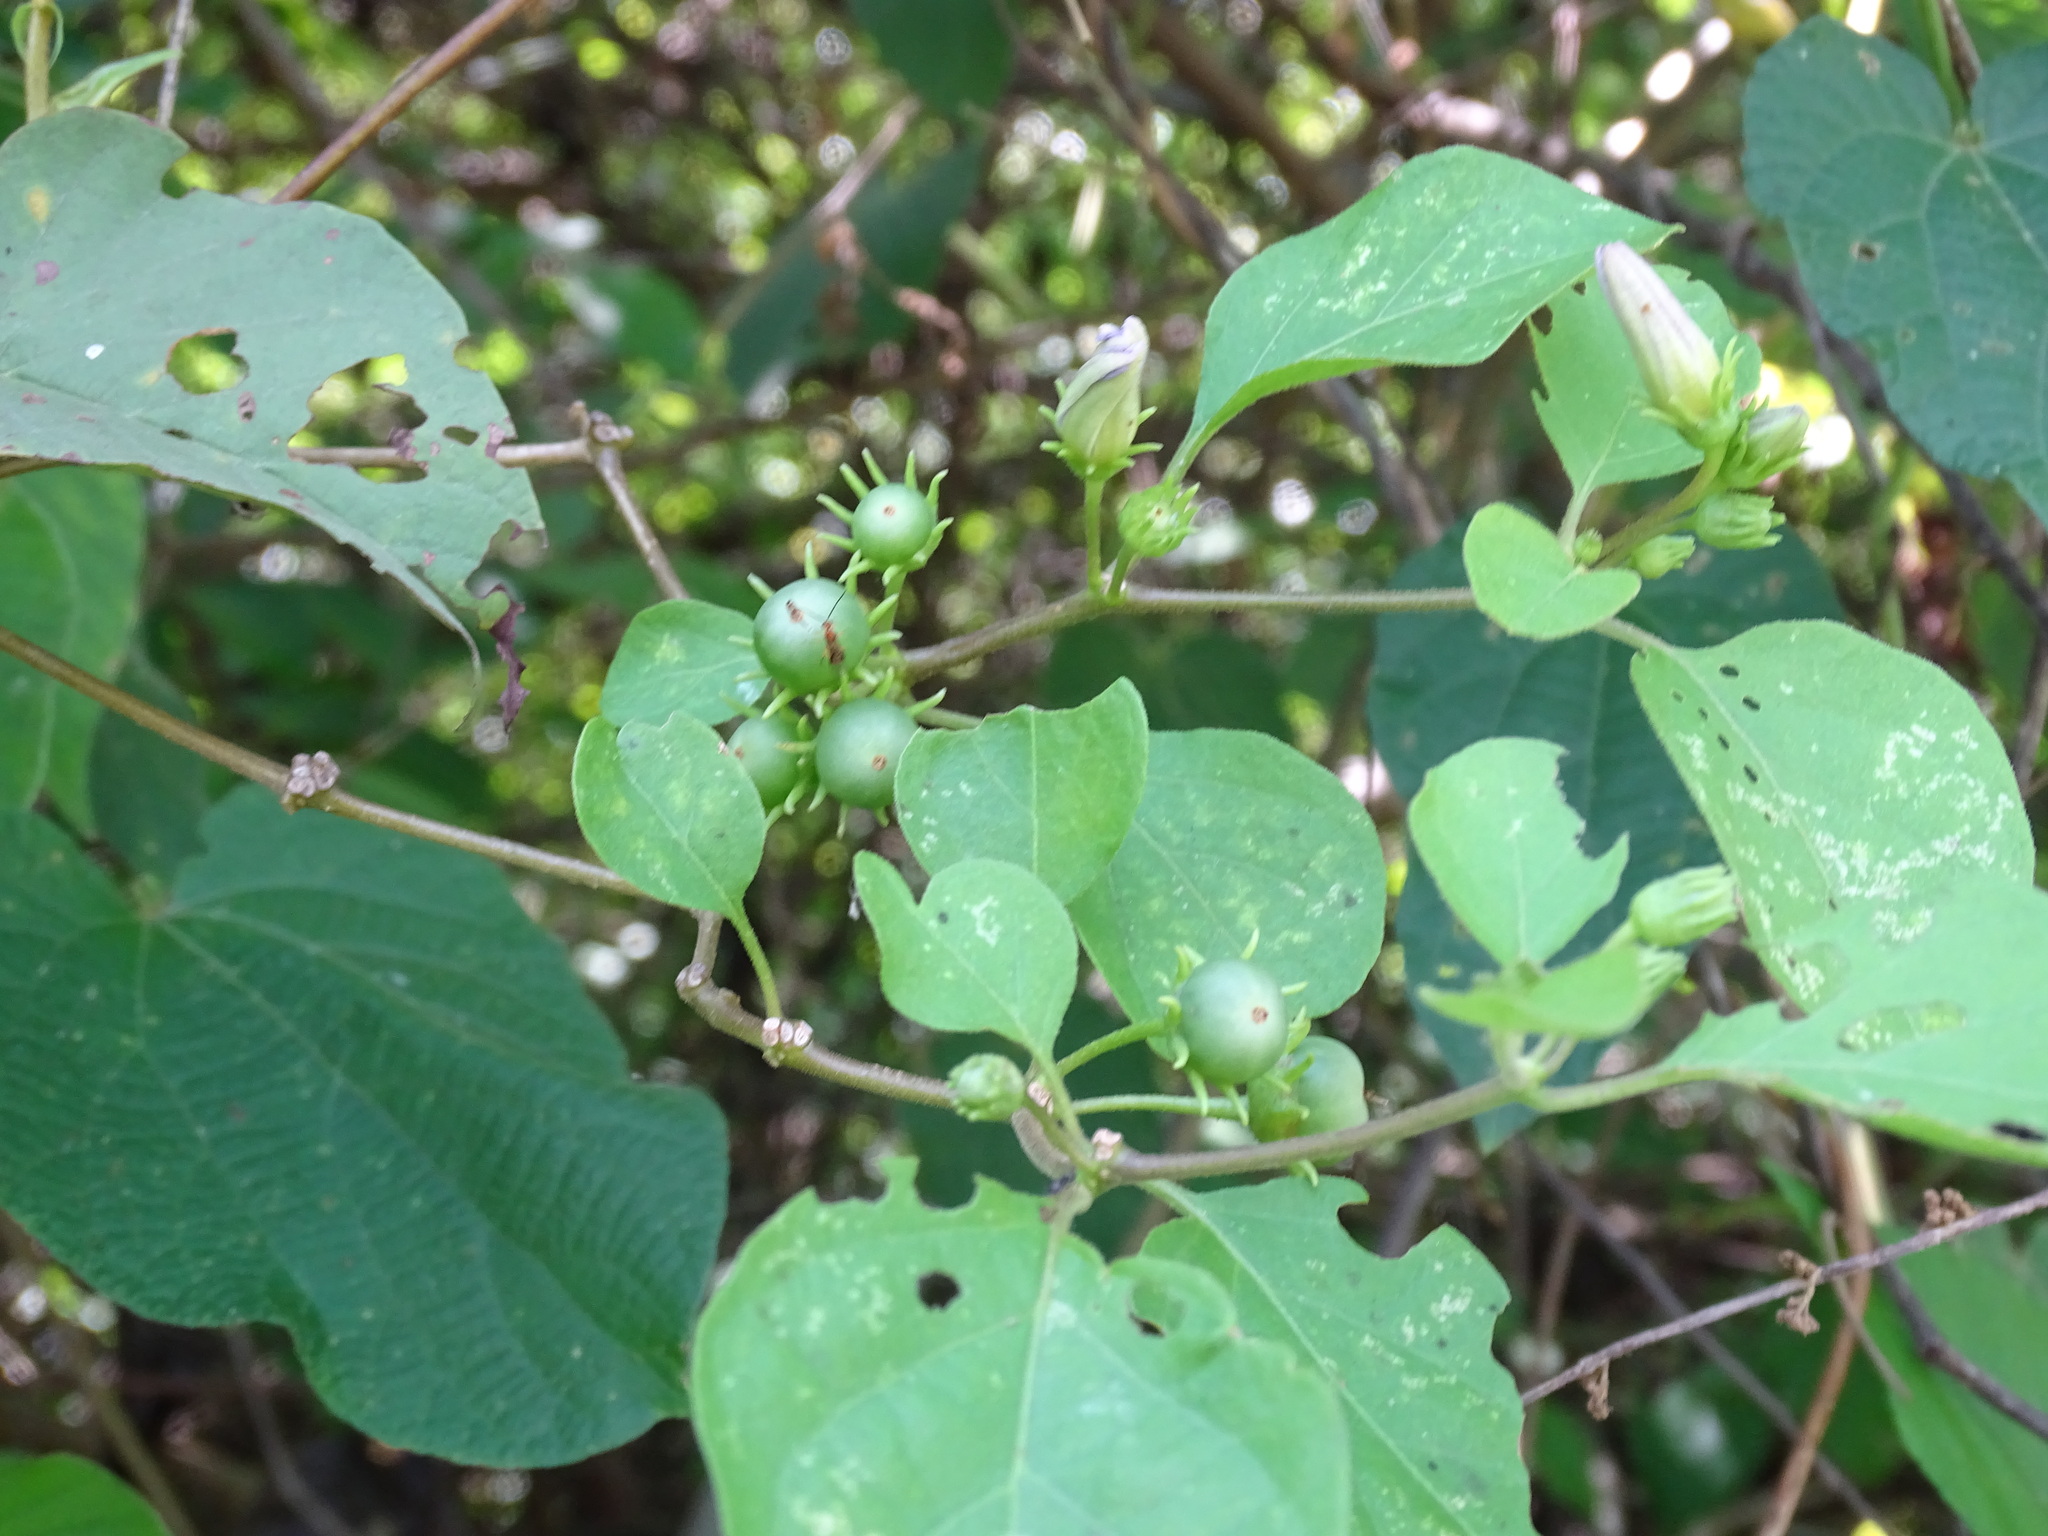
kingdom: Plantae
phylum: Tracheophyta
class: Magnoliopsida
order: Solanales
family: Solanaceae
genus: Lycianthes
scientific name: Lycianthes scandens
